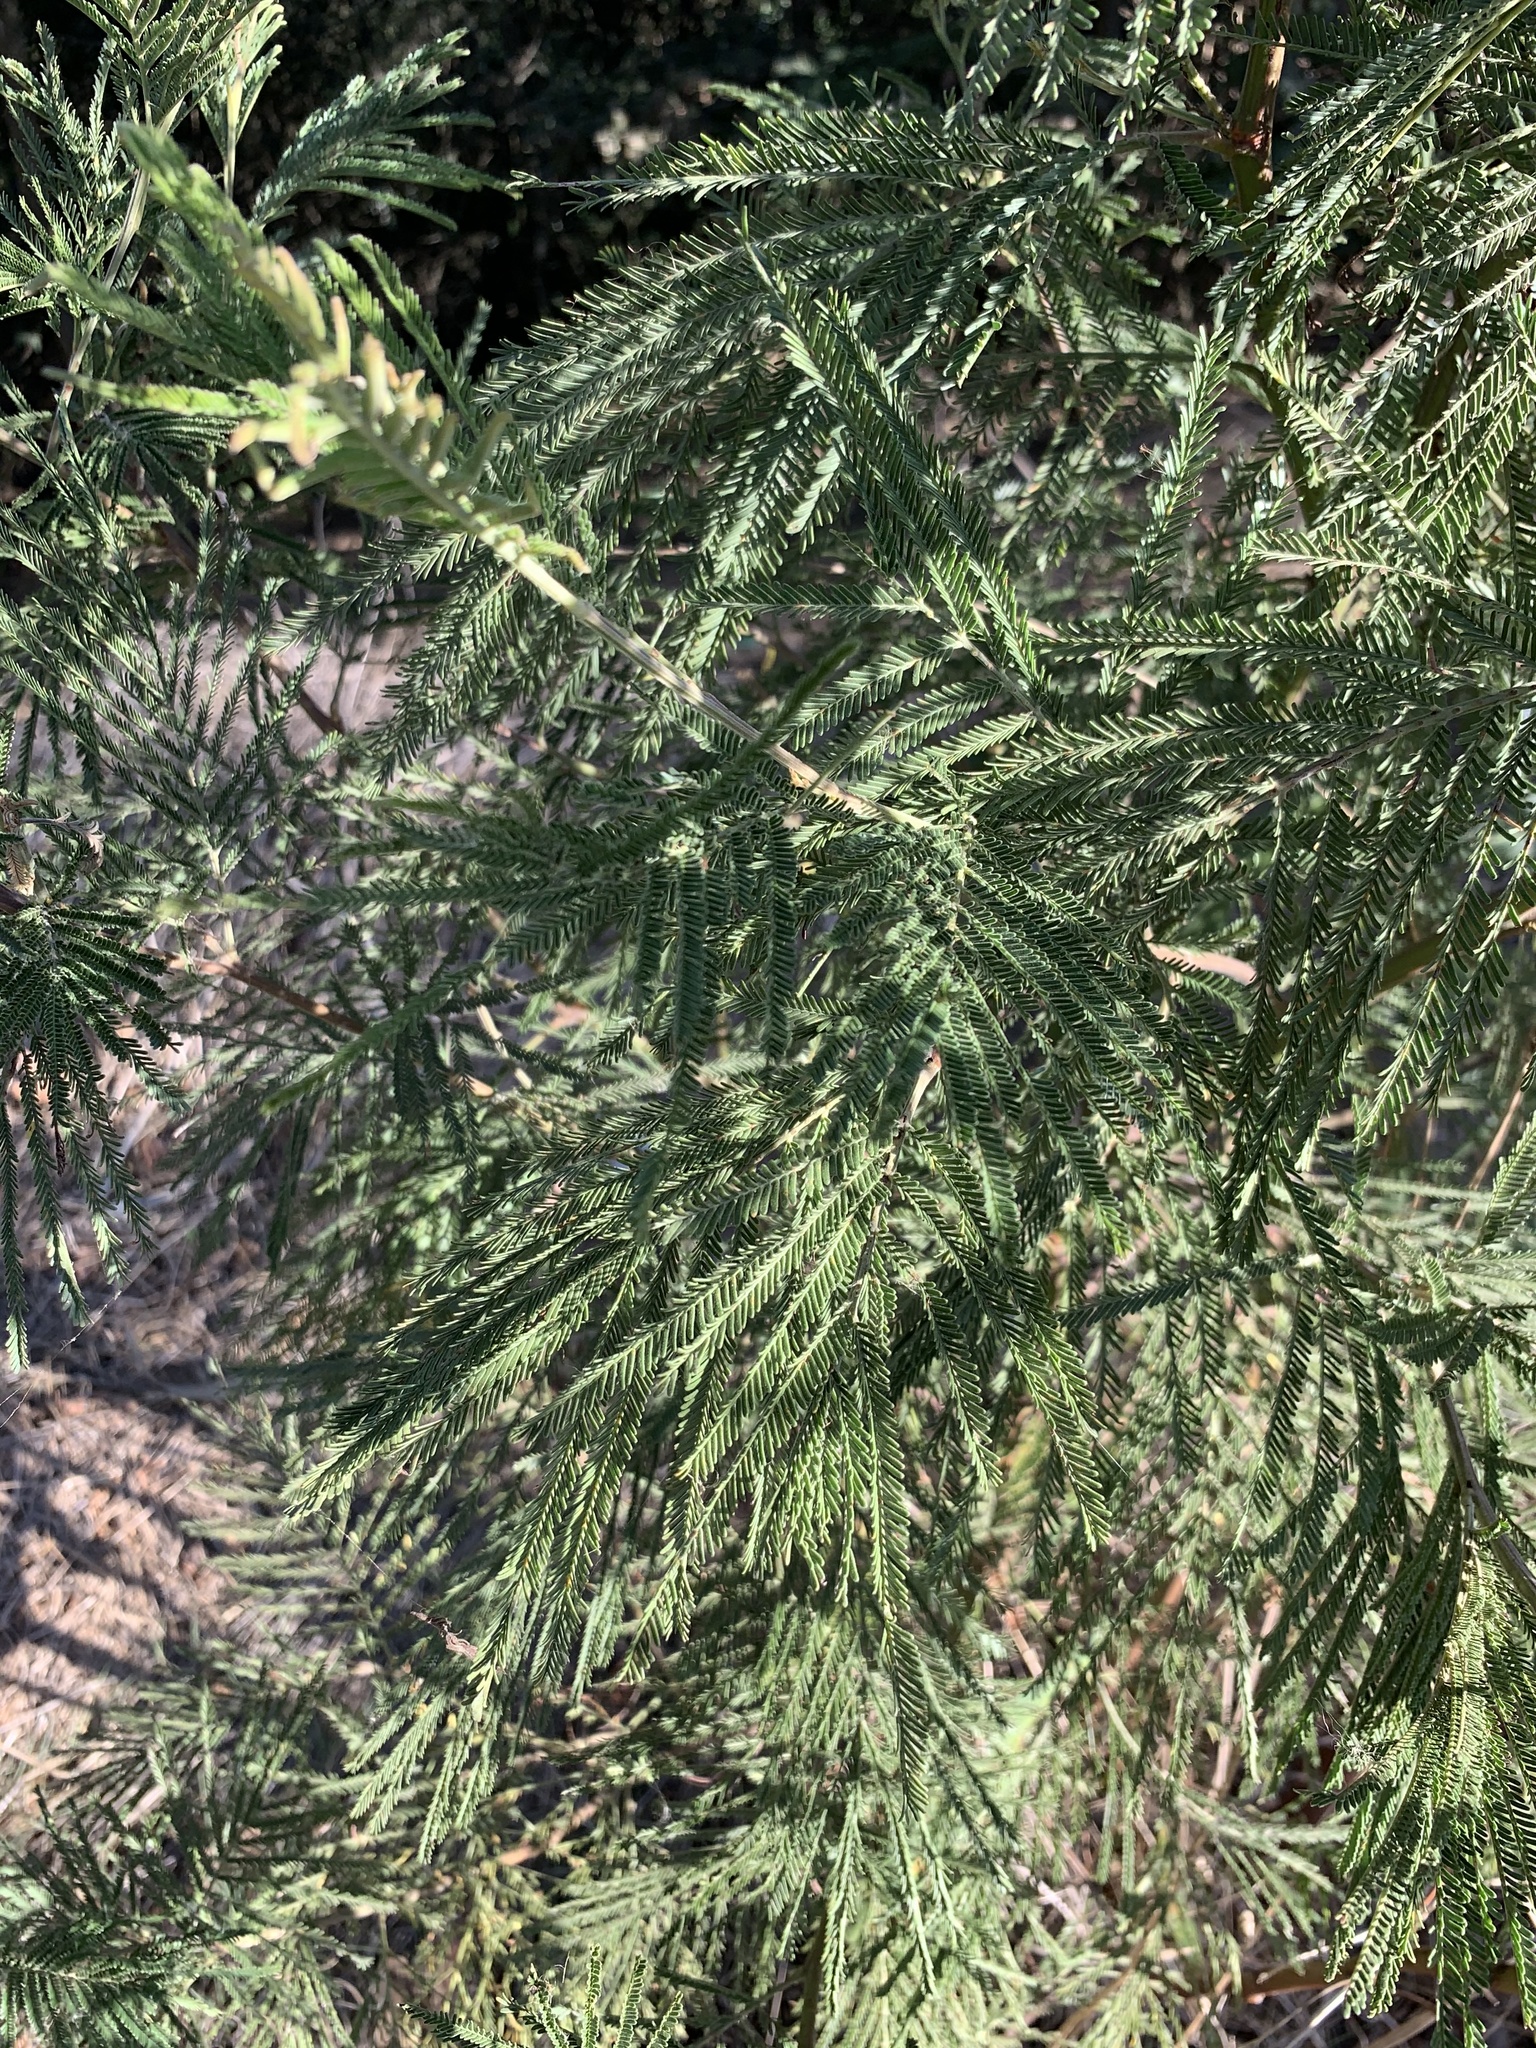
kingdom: Plantae
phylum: Tracheophyta
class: Magnoliopsida
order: Fabales
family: Fabaceae
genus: Acacia
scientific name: Acacia mearnsii
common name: Black wattle
